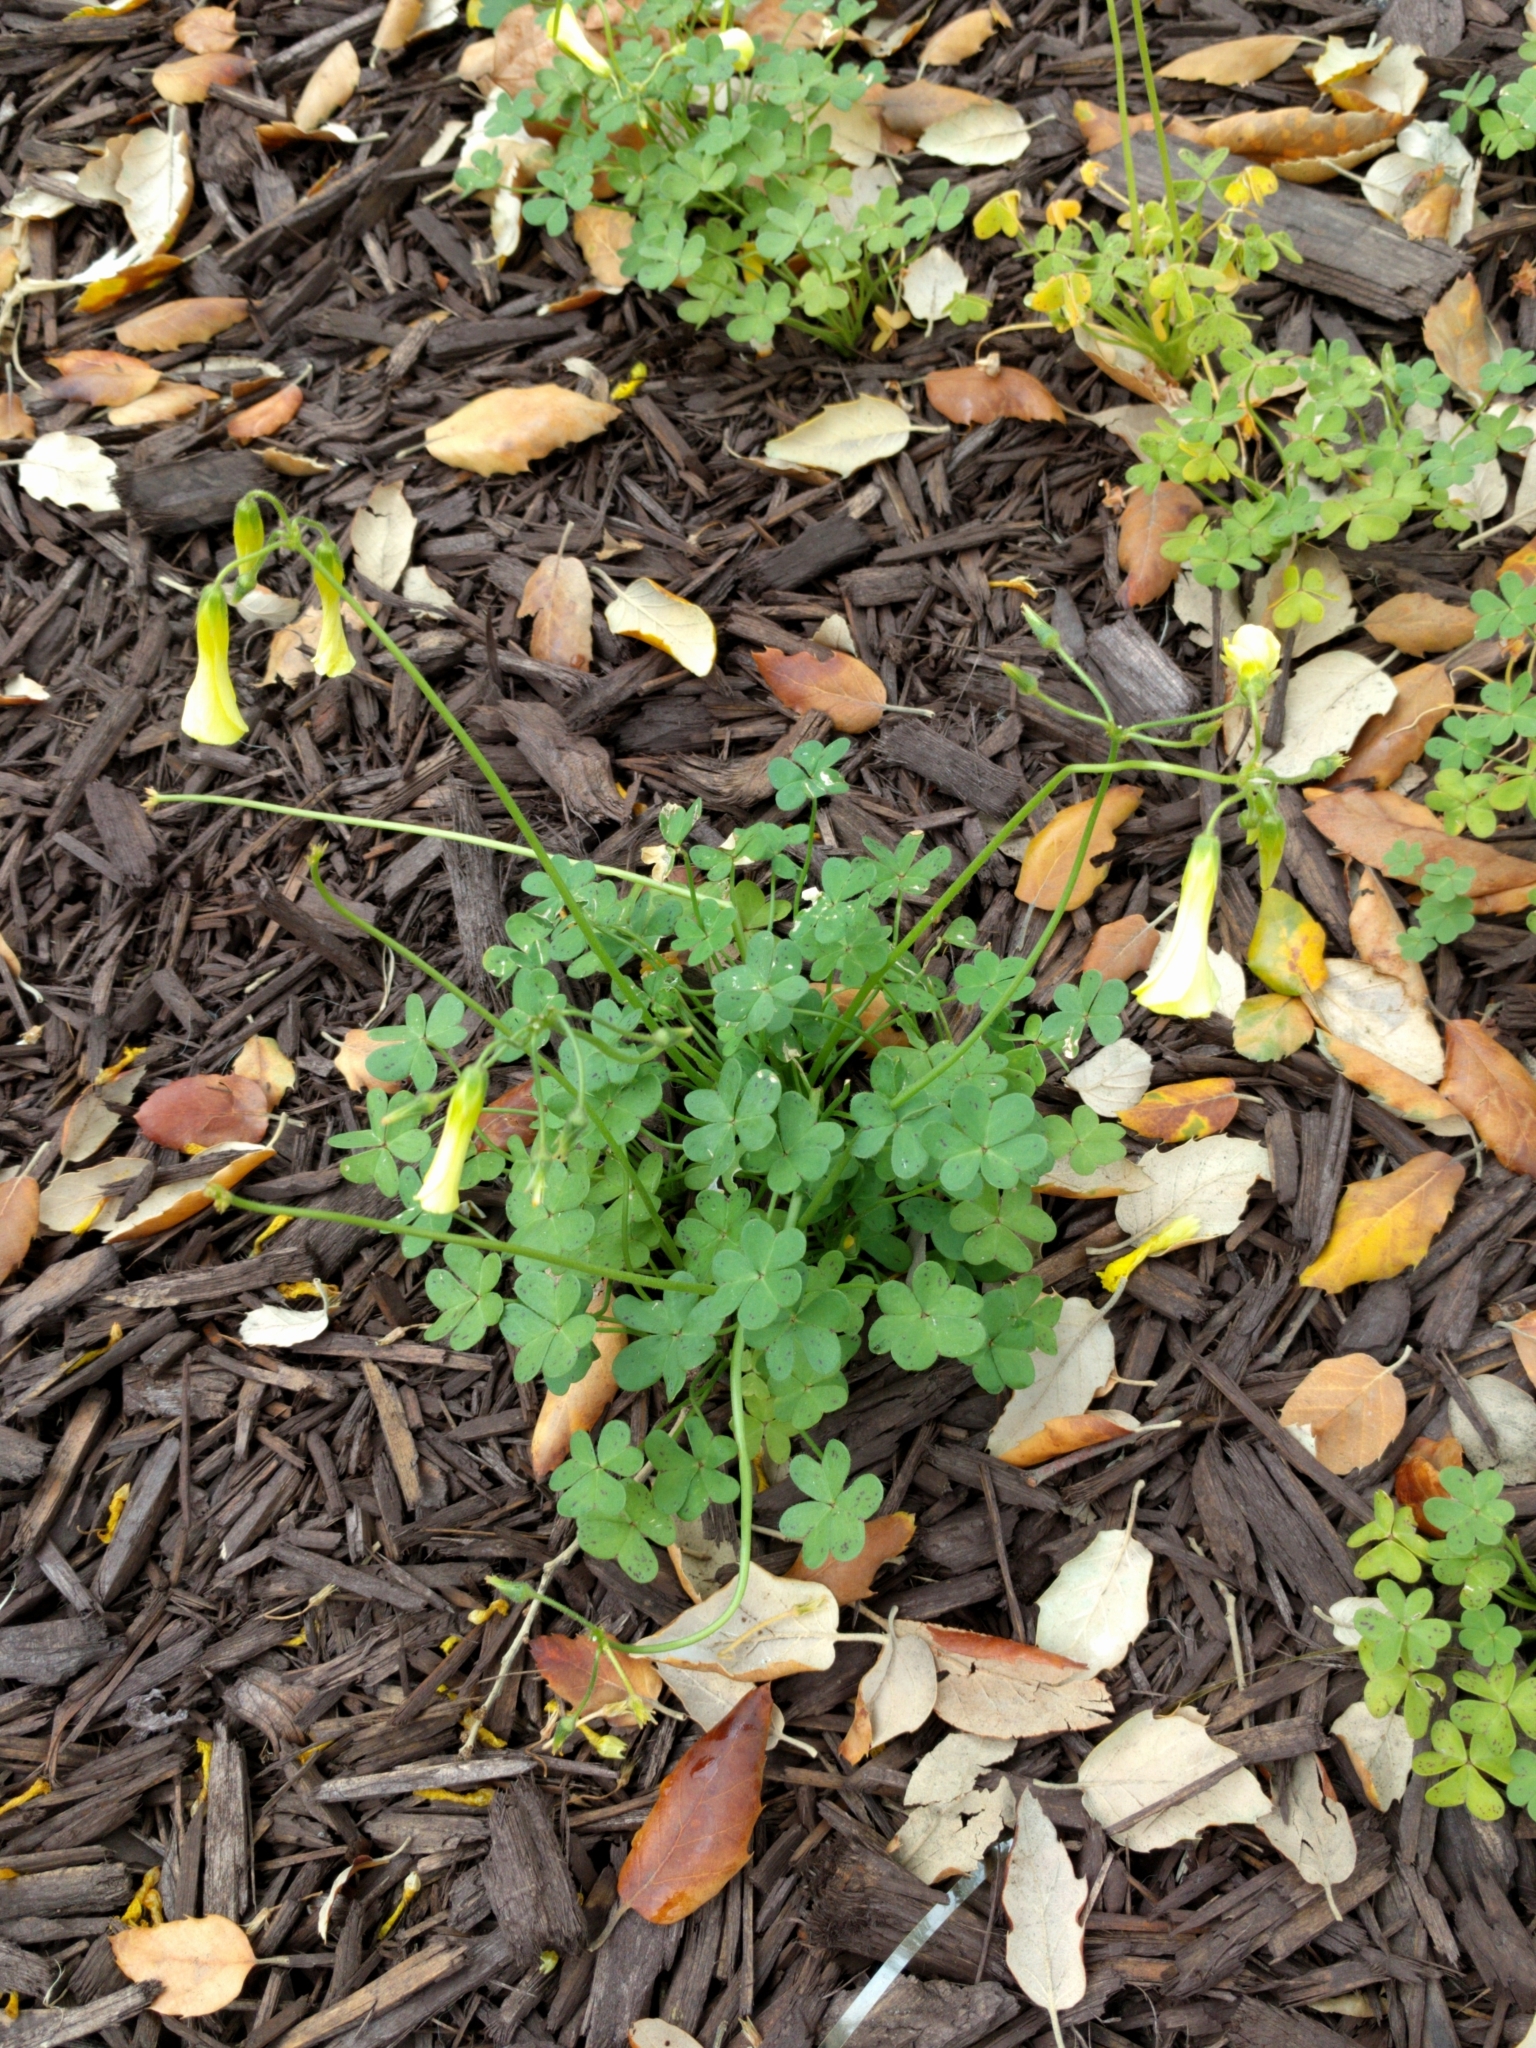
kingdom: Plantae
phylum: Tracheophyta
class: Magnoliopsida
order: Oxalidales
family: Oxalidaceae
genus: Oxalis
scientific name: Oxalis pes-caprae
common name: Bermuda-buttercup
